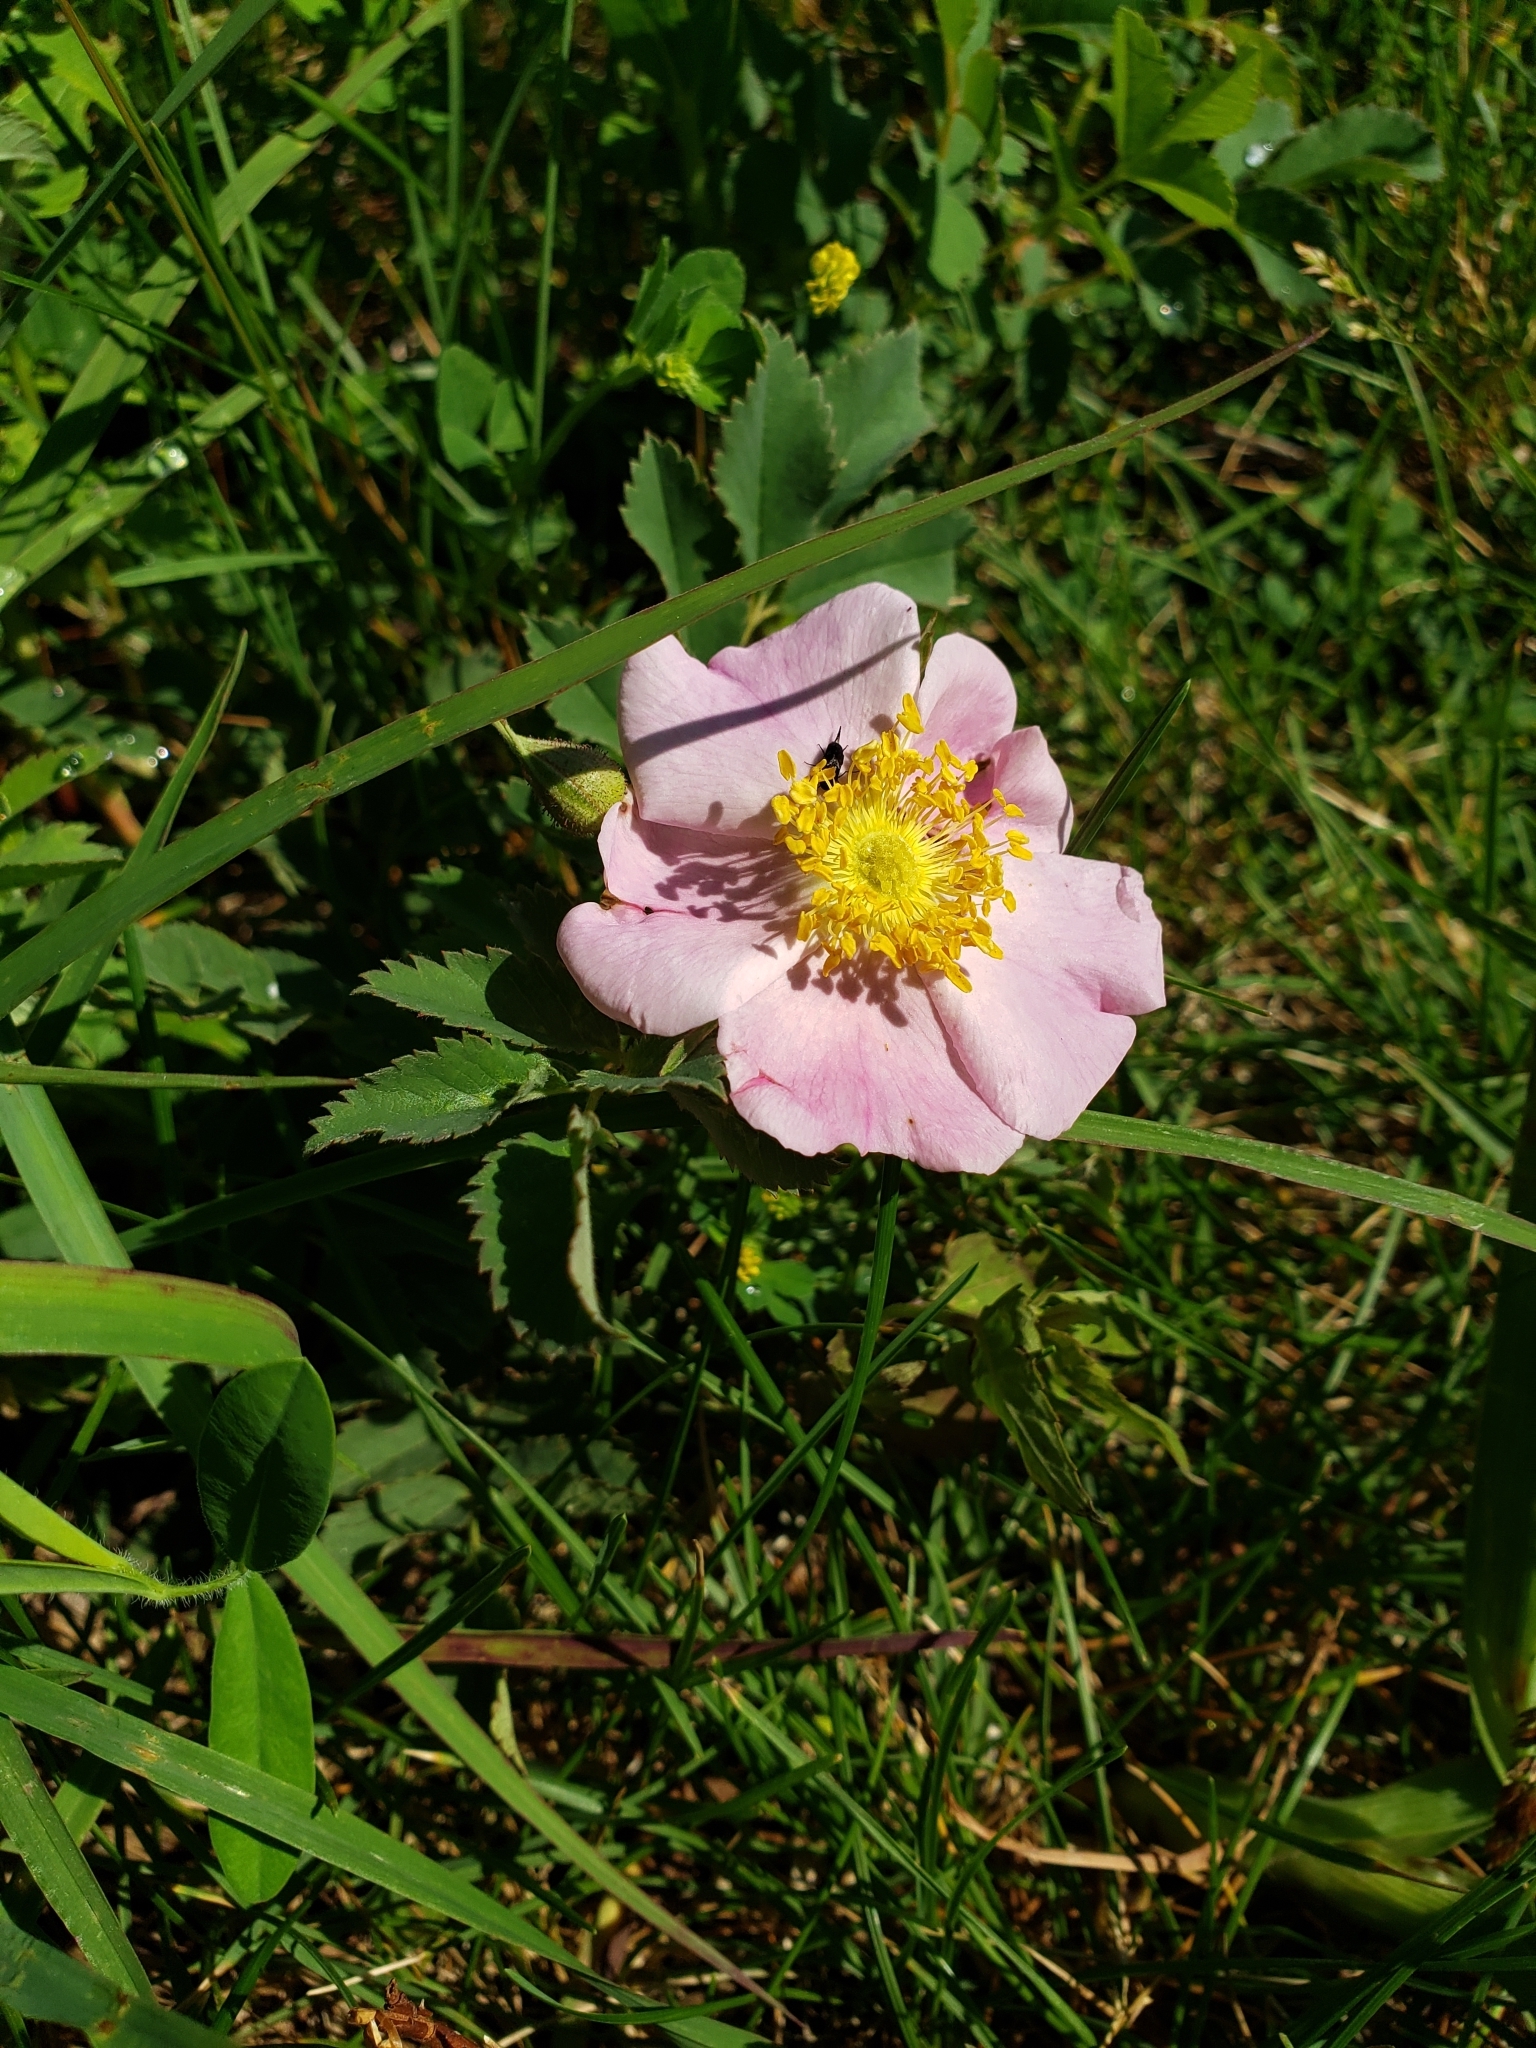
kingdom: Plantae
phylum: Tracheophyta
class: Magnoliopsida
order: Rosales
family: Rosaceae
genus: Rosa
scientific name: Rosa arkansana
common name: Prairie rose
